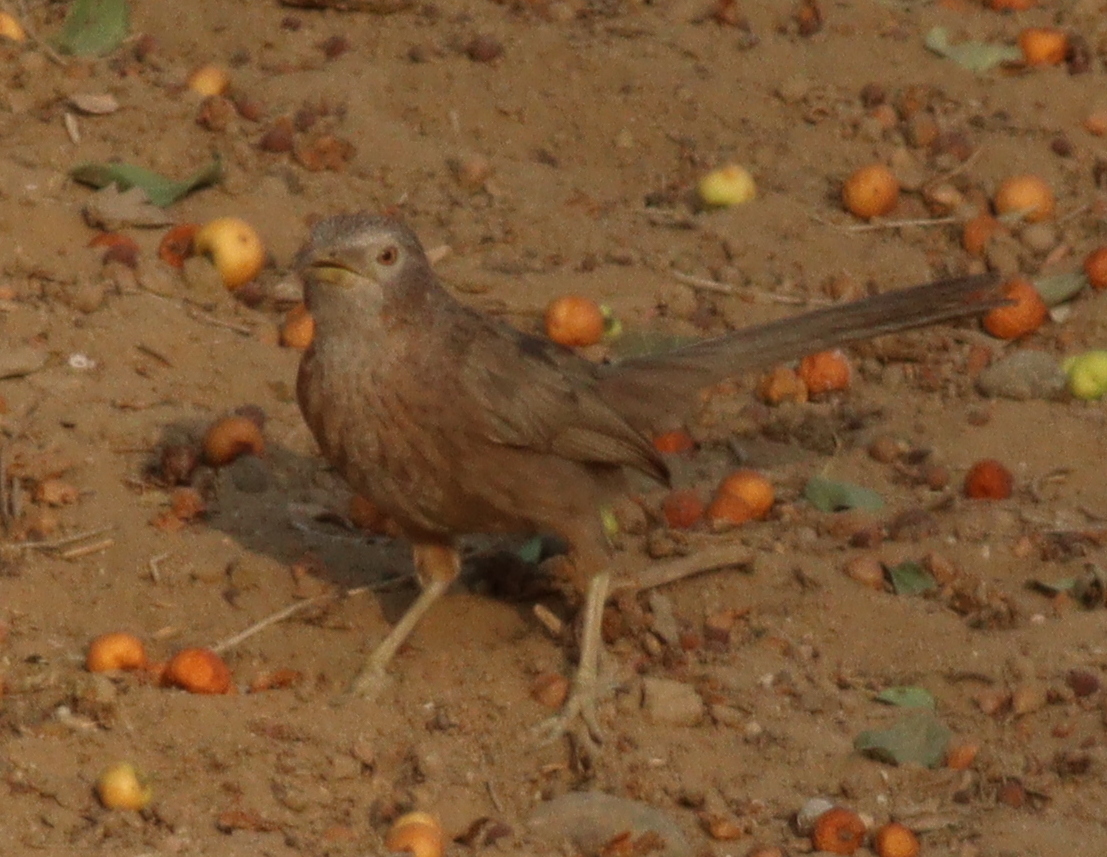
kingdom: Animalia
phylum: Chordata
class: Aves
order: Passeriformes
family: Leiothrichidae
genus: Turdoides
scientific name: Turdoides squamiceps
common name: Arabian babbler
